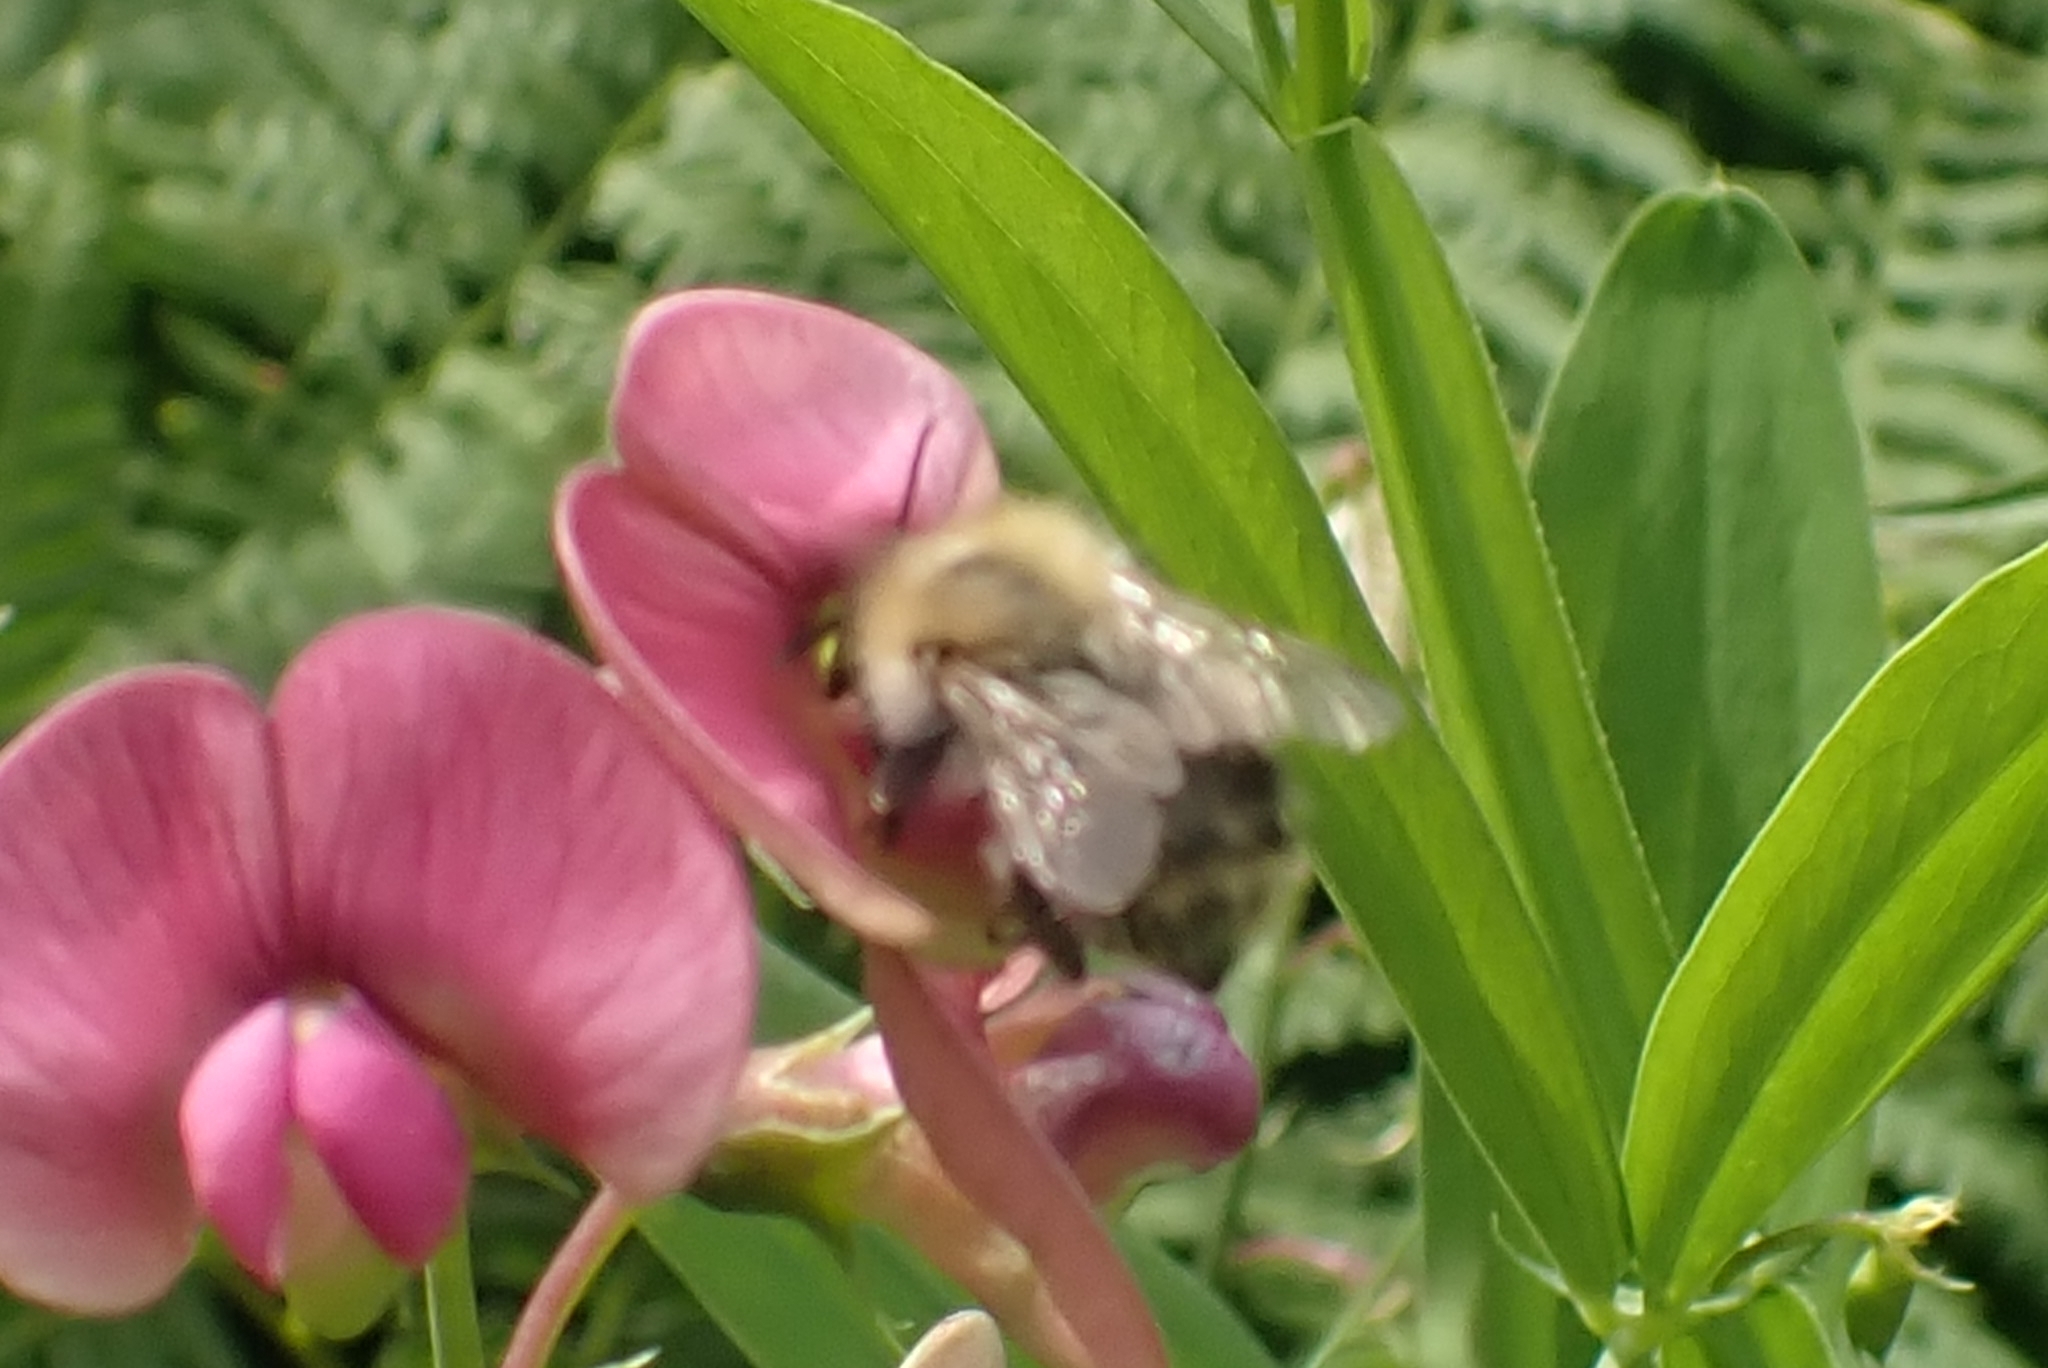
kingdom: Animalia
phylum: Arthropoda
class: Insecta
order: Hymenoptera
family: Apidae
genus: Bombus
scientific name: Bombus pascuorum
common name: Common carder bee
